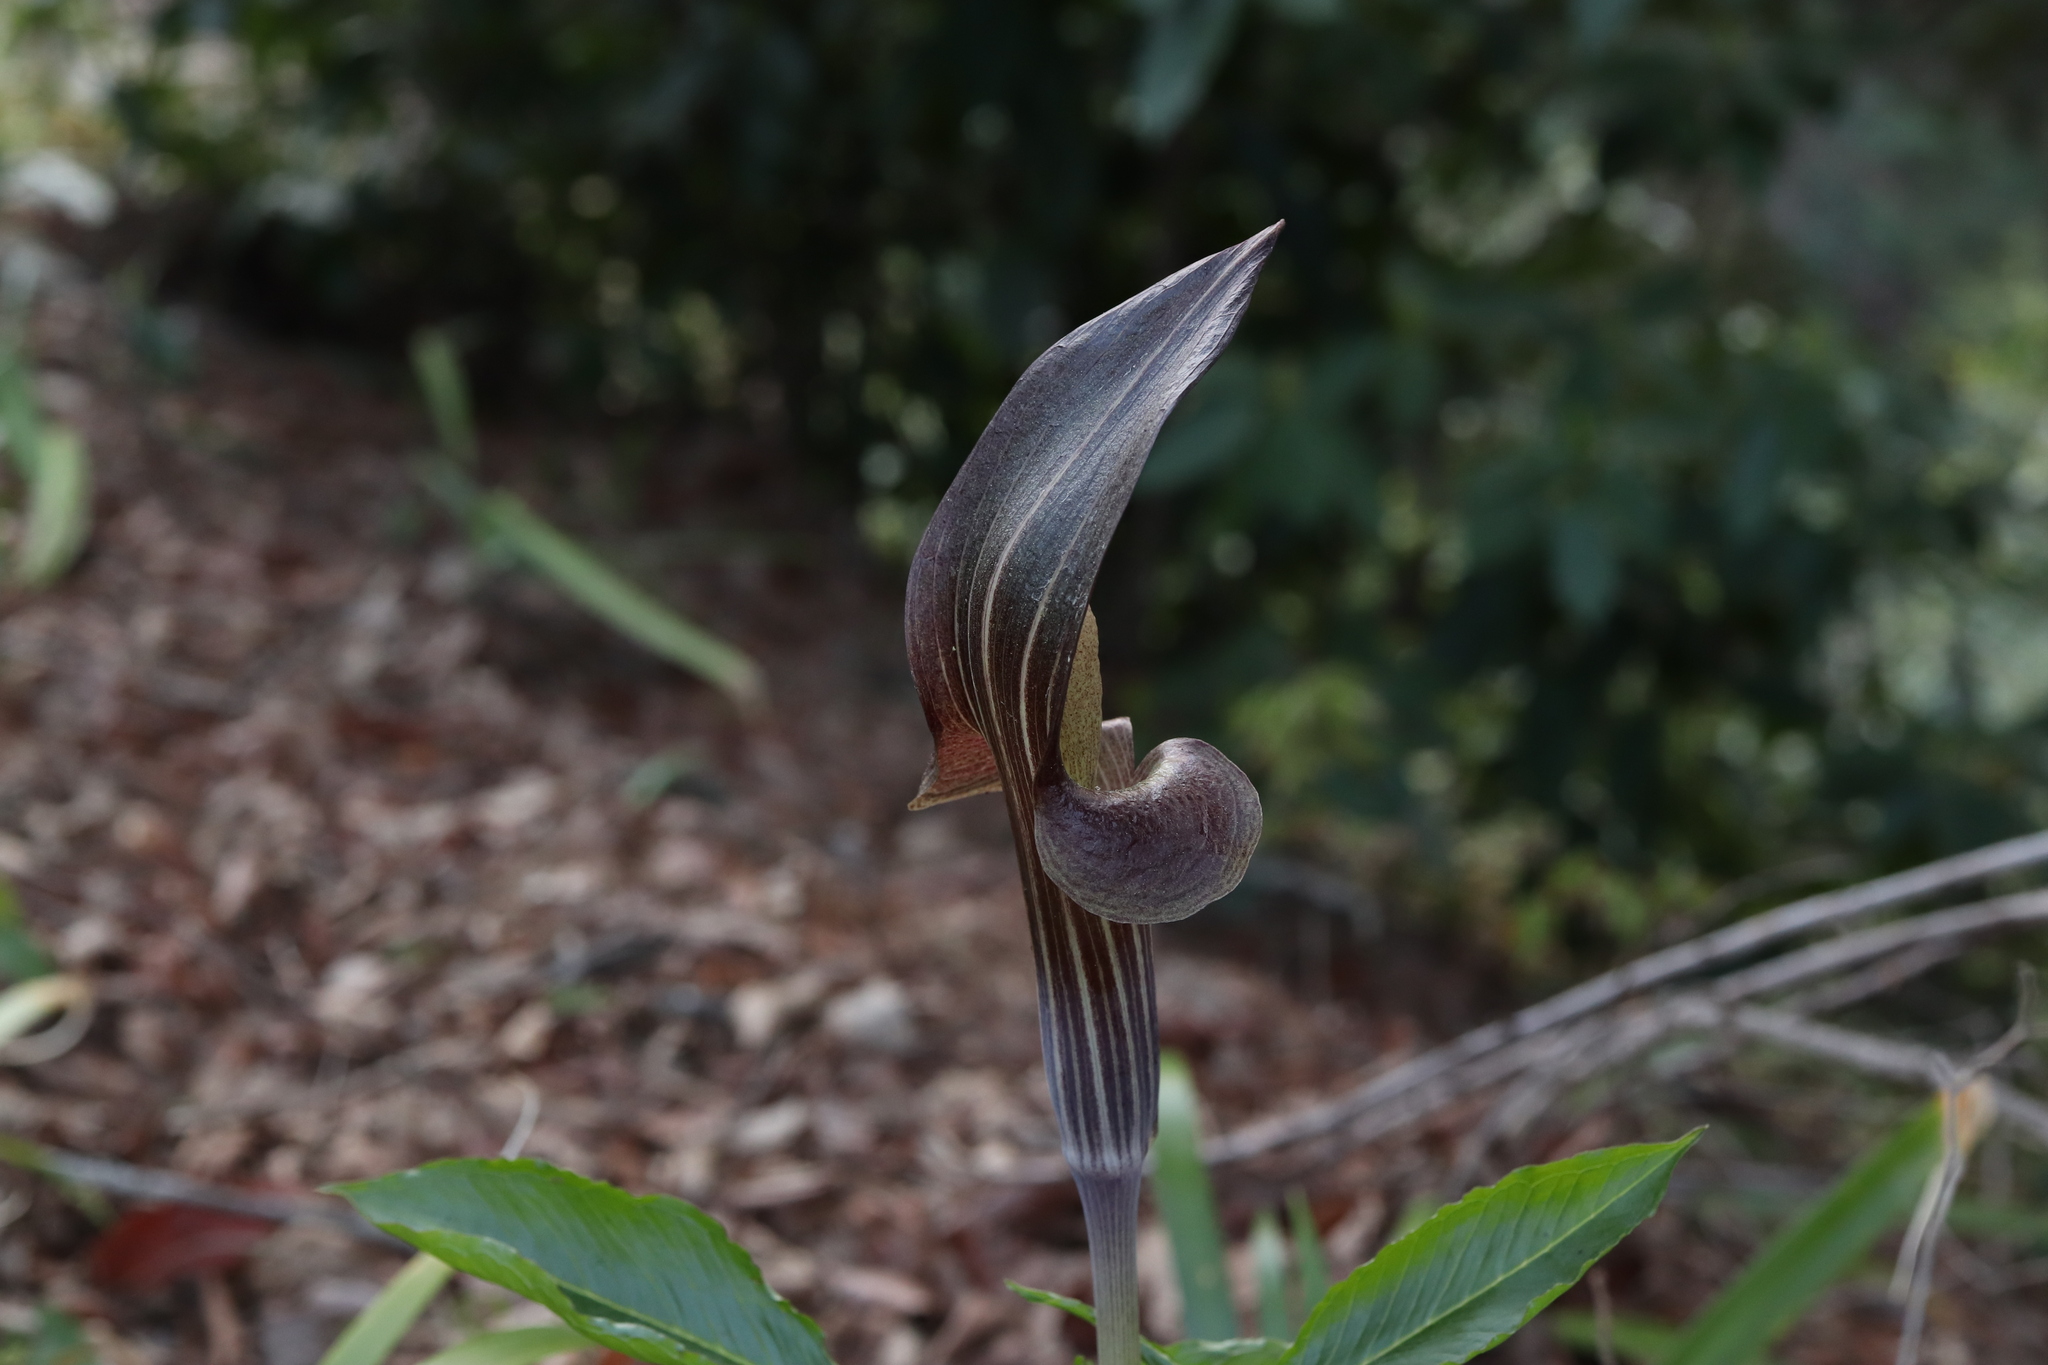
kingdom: Plantae
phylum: Tracheophyta
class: Liliopsida
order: Alismatales
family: Araceae
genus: Arisaema
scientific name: Arisaema limbatum
